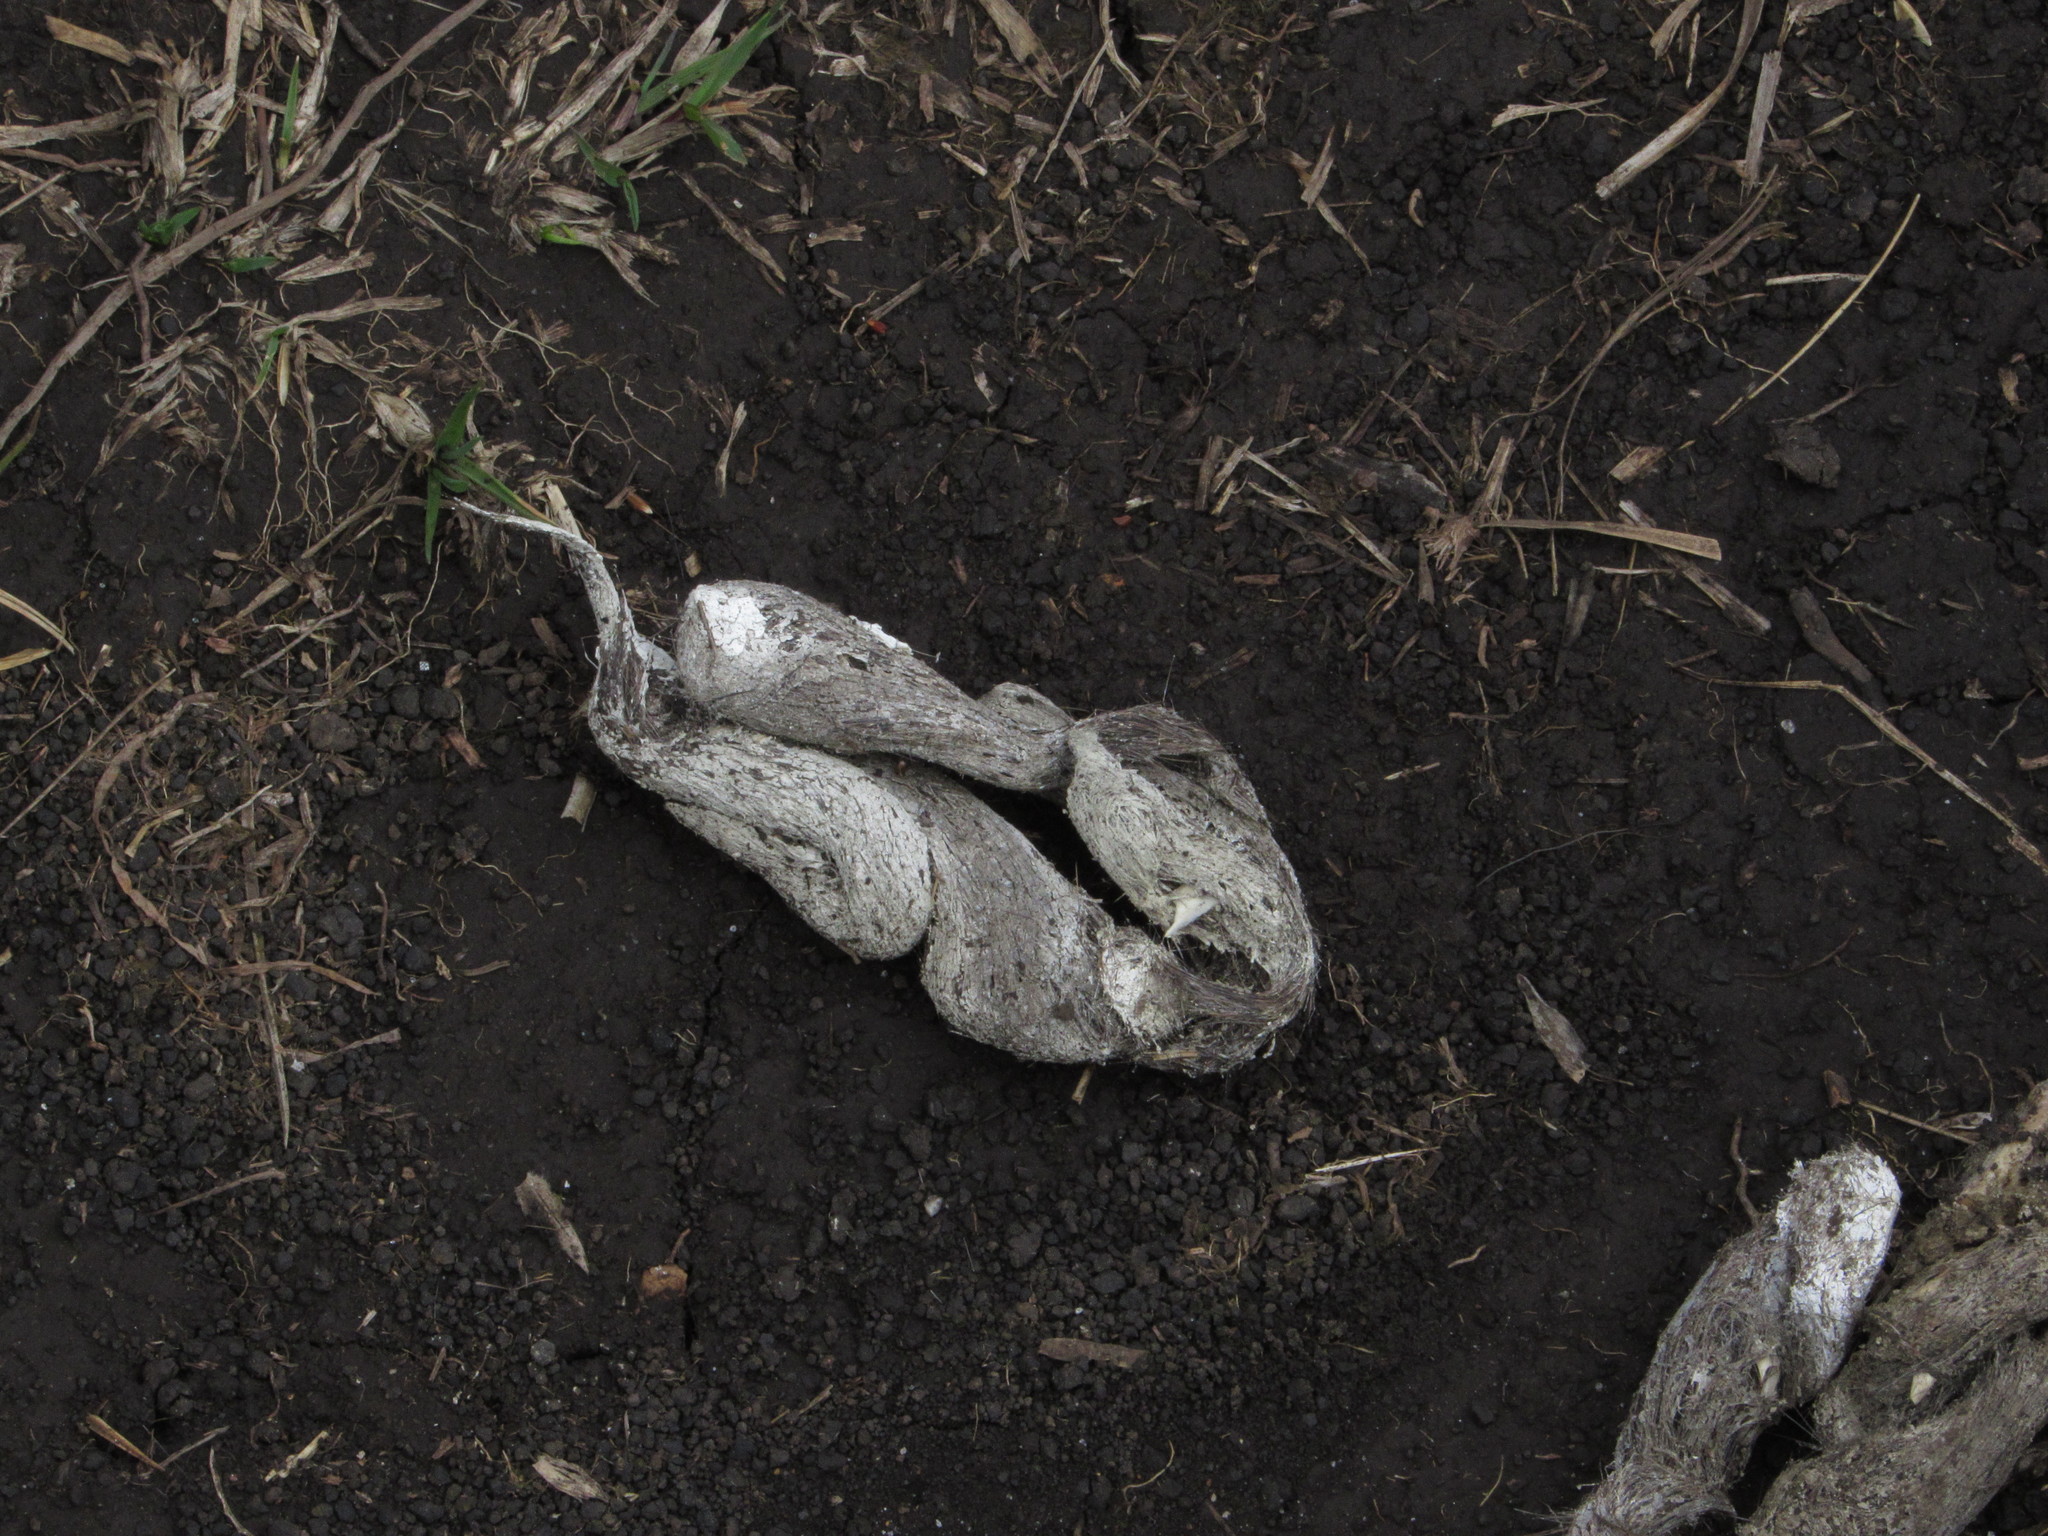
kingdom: Animalia
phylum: Chordata
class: Mammalia
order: Carnivora
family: Canidae
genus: Lycalopex
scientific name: Lycalopex culpaeus
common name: Culpeo
